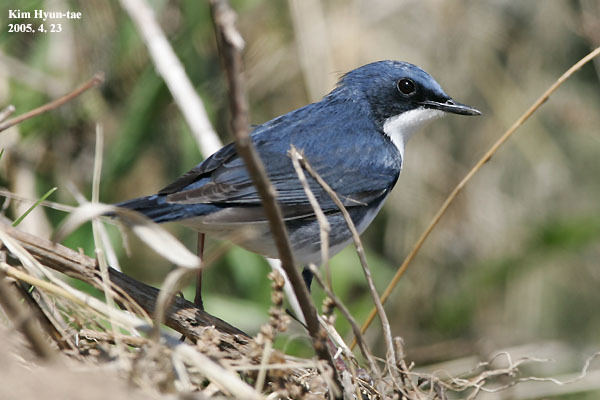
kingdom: Animalia
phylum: Chordata
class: Aves
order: Passeriformes
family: Muscicapidae
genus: Luscinia
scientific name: Luscinia cyane
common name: Siberian blue robin
